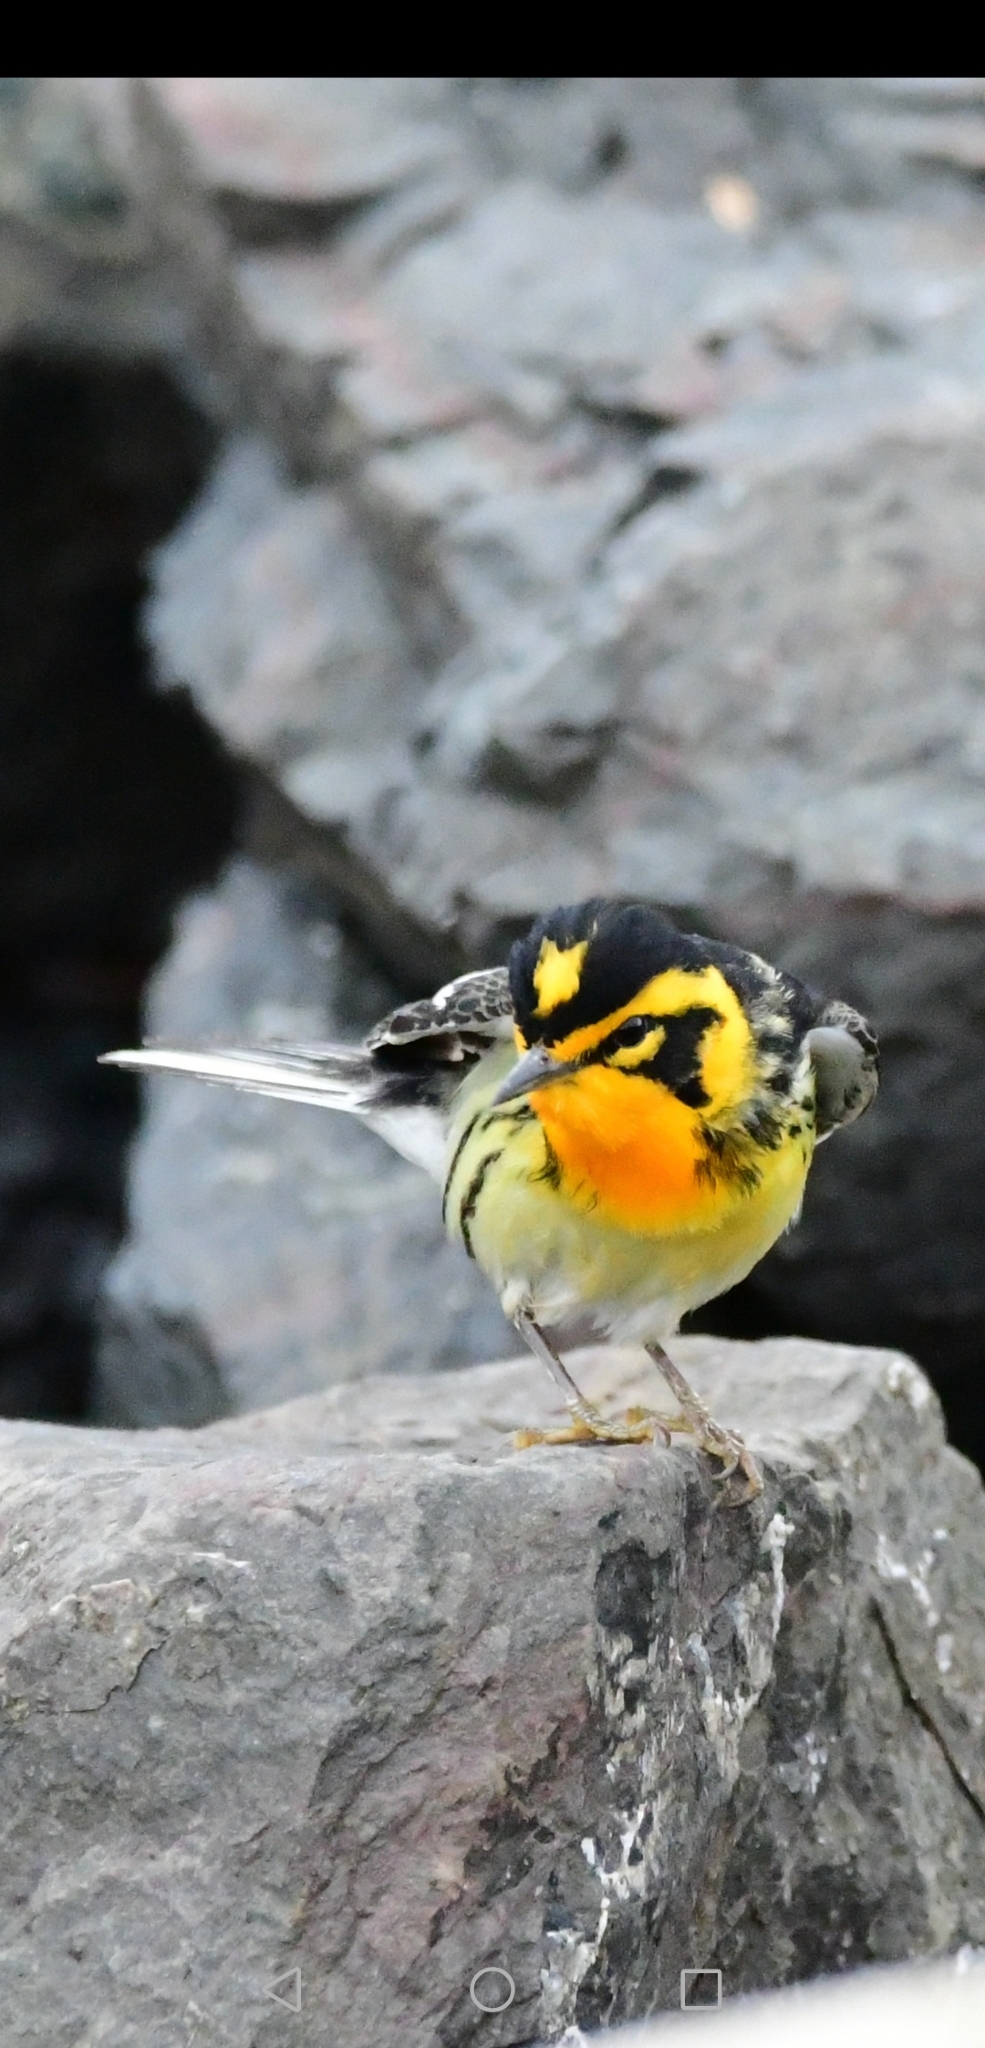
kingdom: Animalia
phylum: Chordata
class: Aves
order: Passeriformes
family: Parulidae
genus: Setophaga
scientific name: Setophaga fusca
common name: Blackburnian warbler
